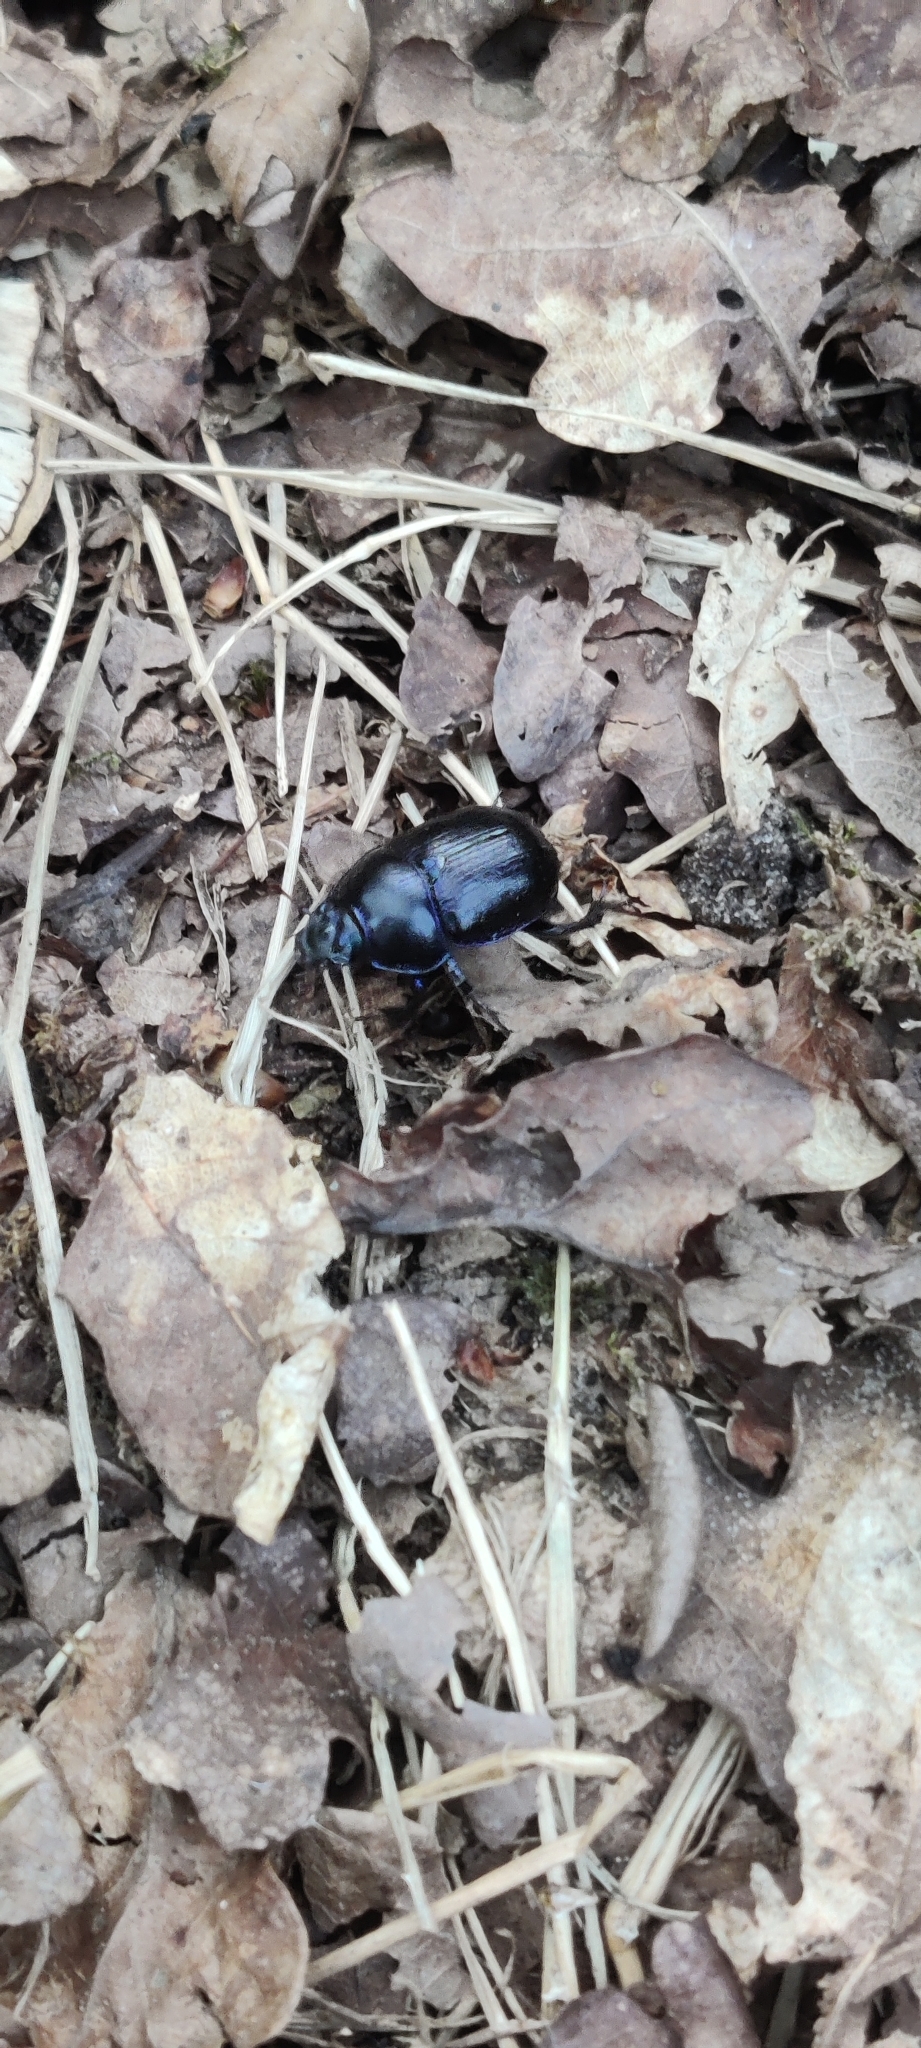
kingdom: Animalia
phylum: Arthropoda
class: Insecta
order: Coleoptera
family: Geotrupidae
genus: Anoplotrupes
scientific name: Anoplotrupes stercorosus
